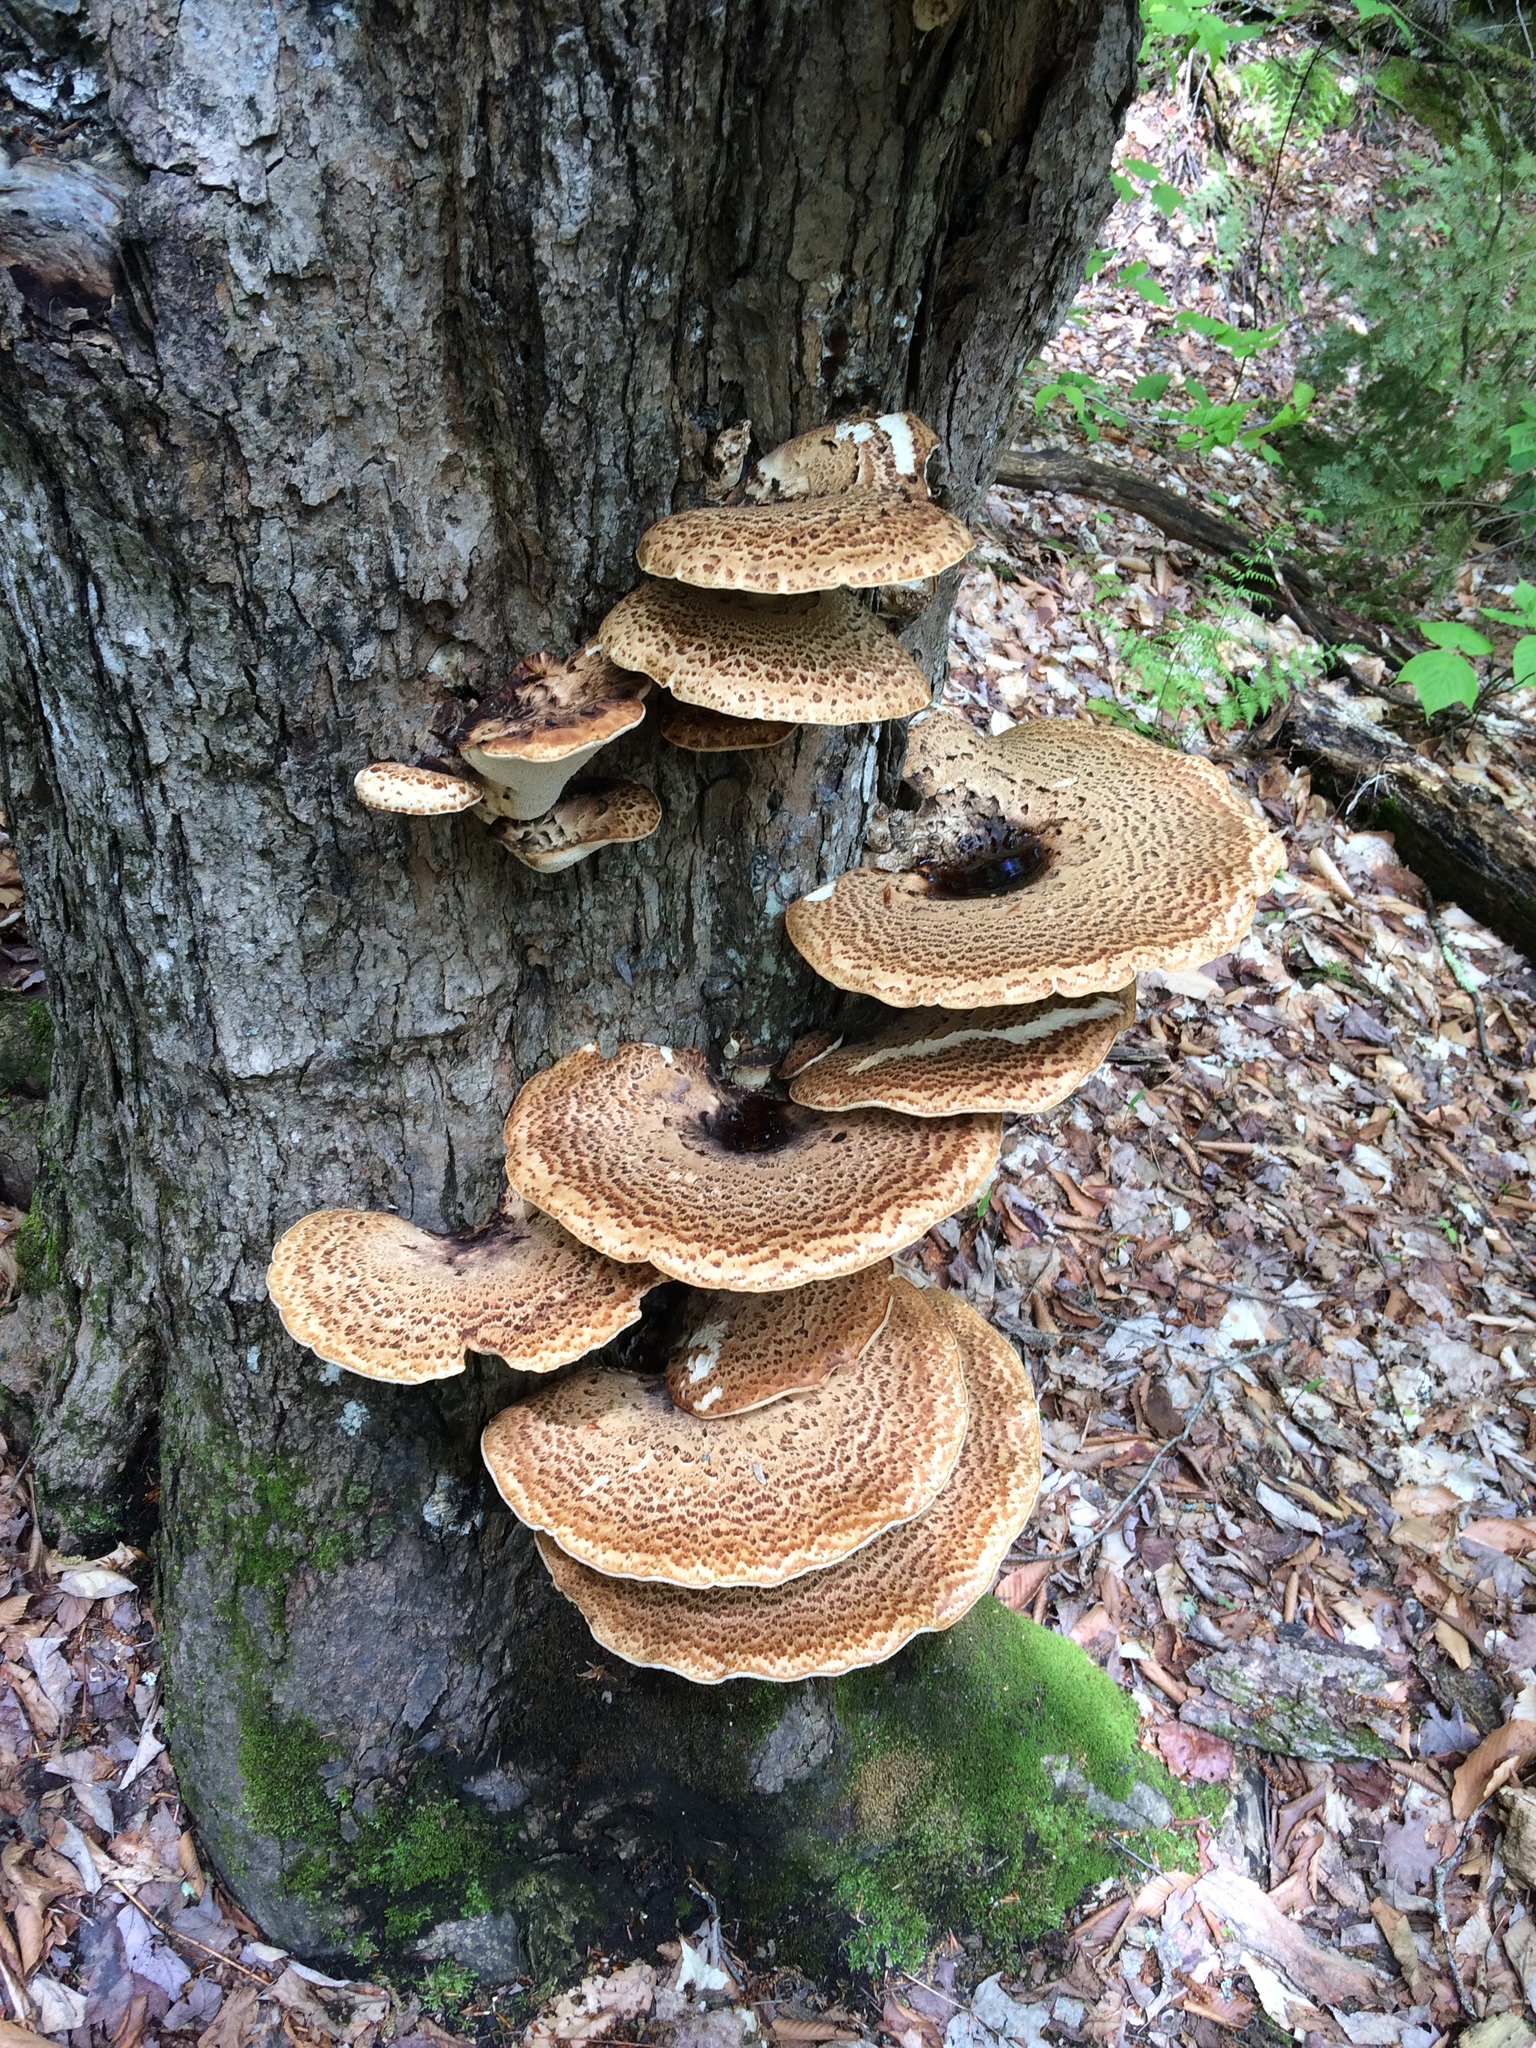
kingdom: Fungi
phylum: Basidiomycota
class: Agaricomycetes
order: Polyporales
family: Polyporaceae
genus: Cerioporus
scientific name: Cerioporus squamosus
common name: Dryad's saddle
